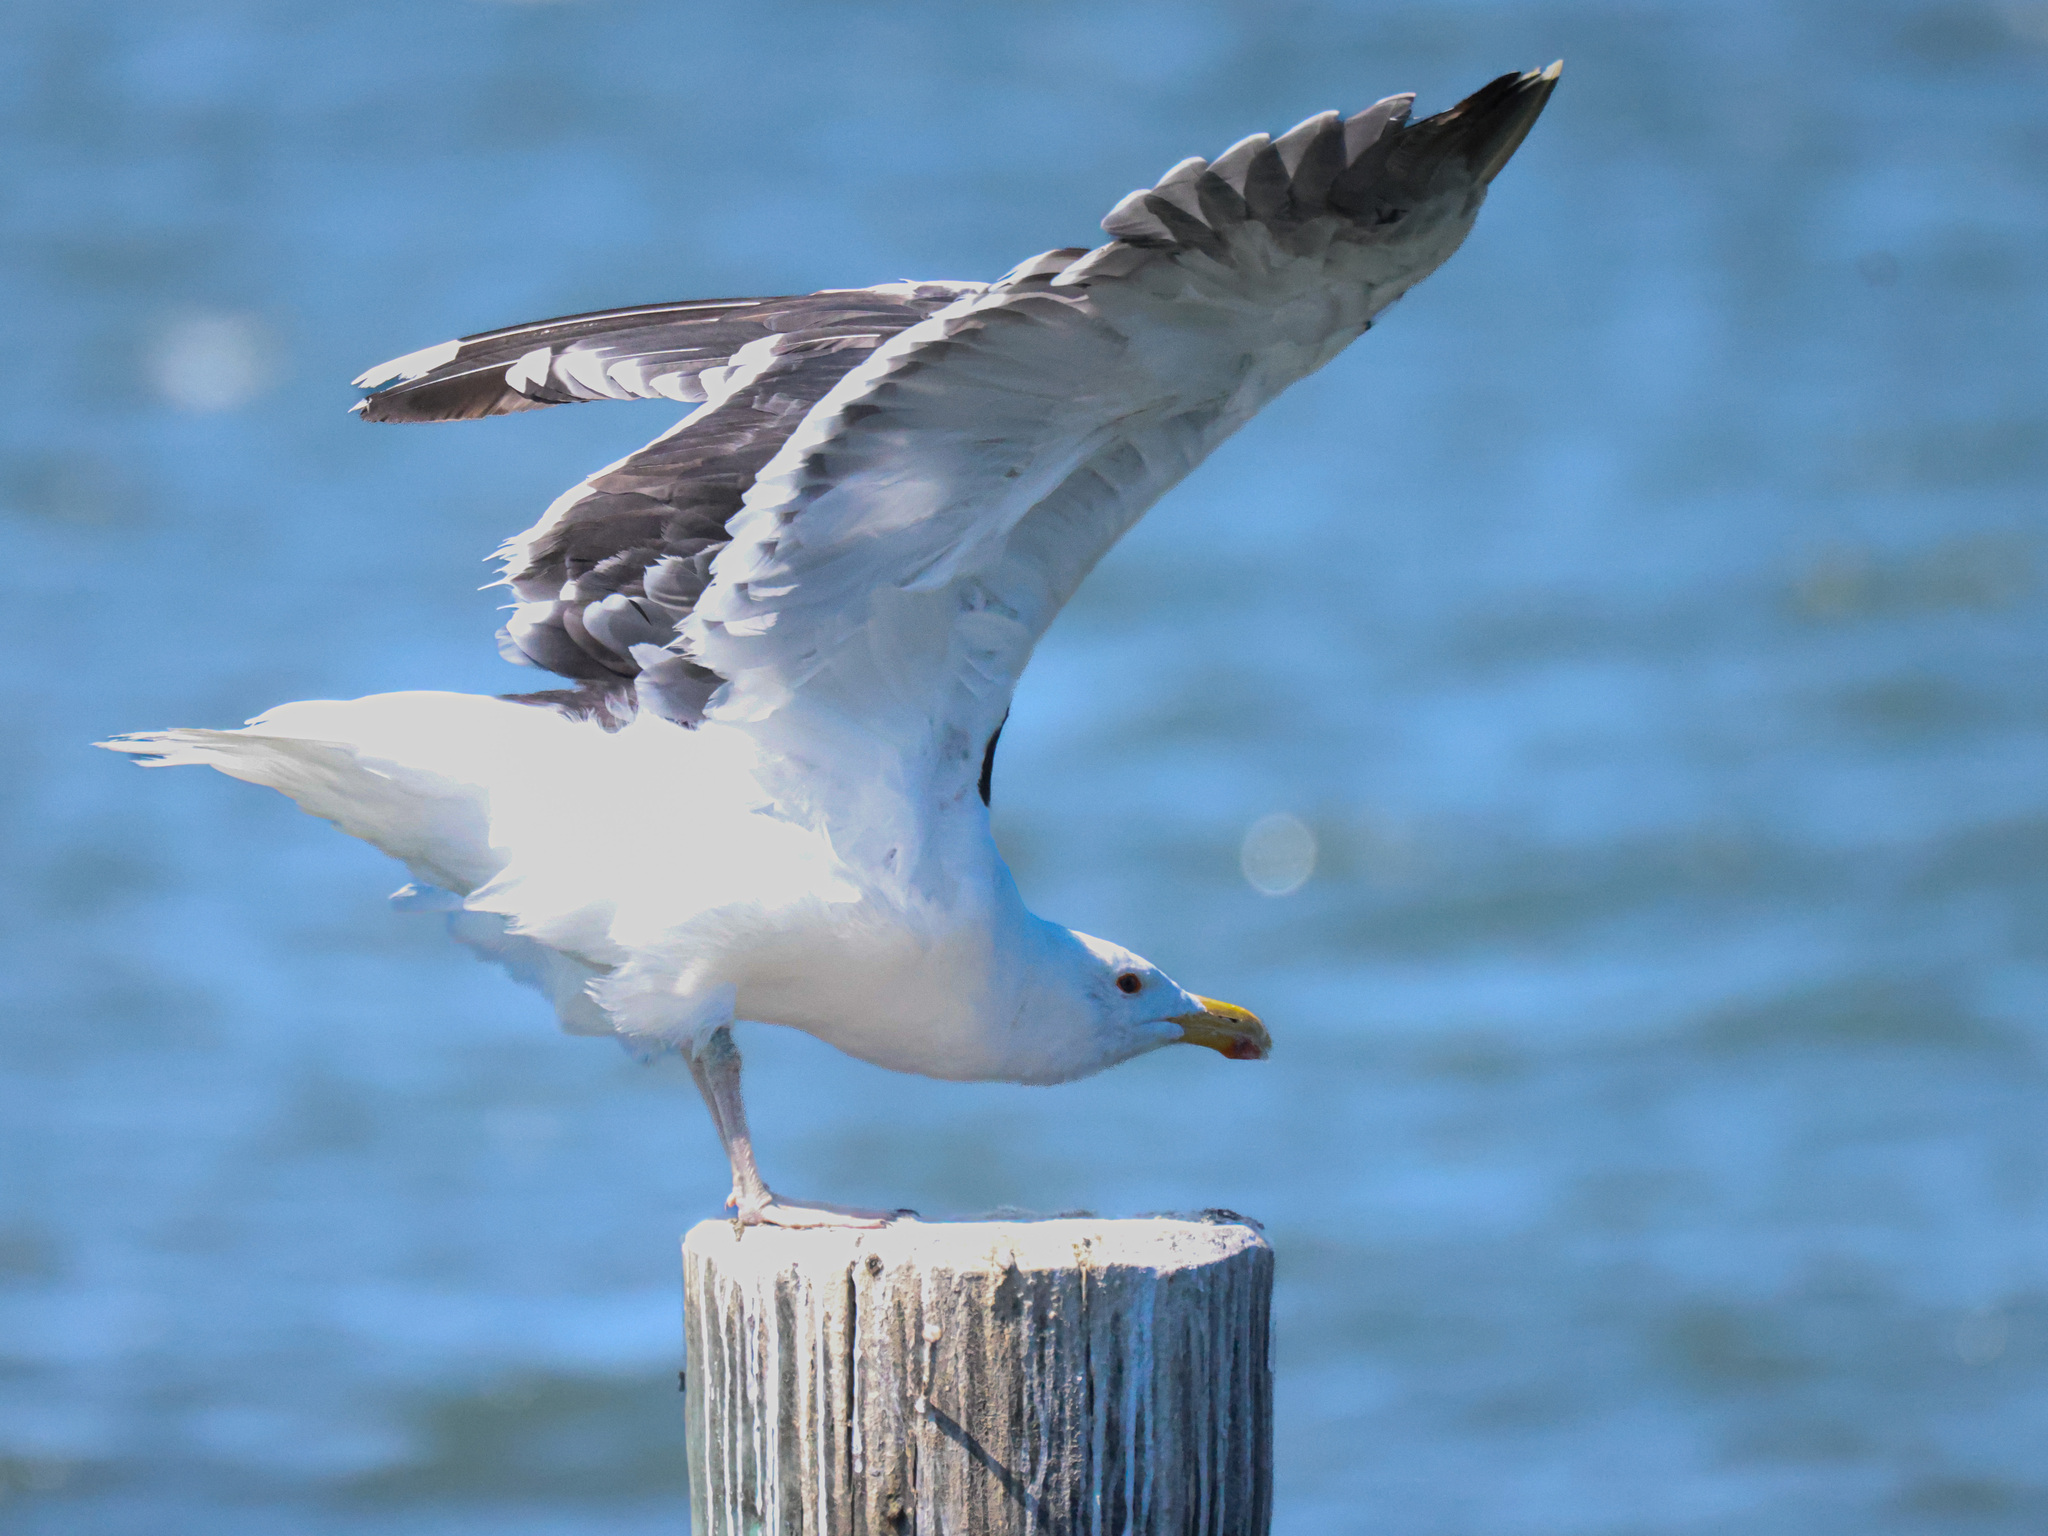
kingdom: Animalia
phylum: Chordata
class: Aves
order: Charadriiformes
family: Laridae
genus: Larus
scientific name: Larus marinus
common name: Great black-backed gull
